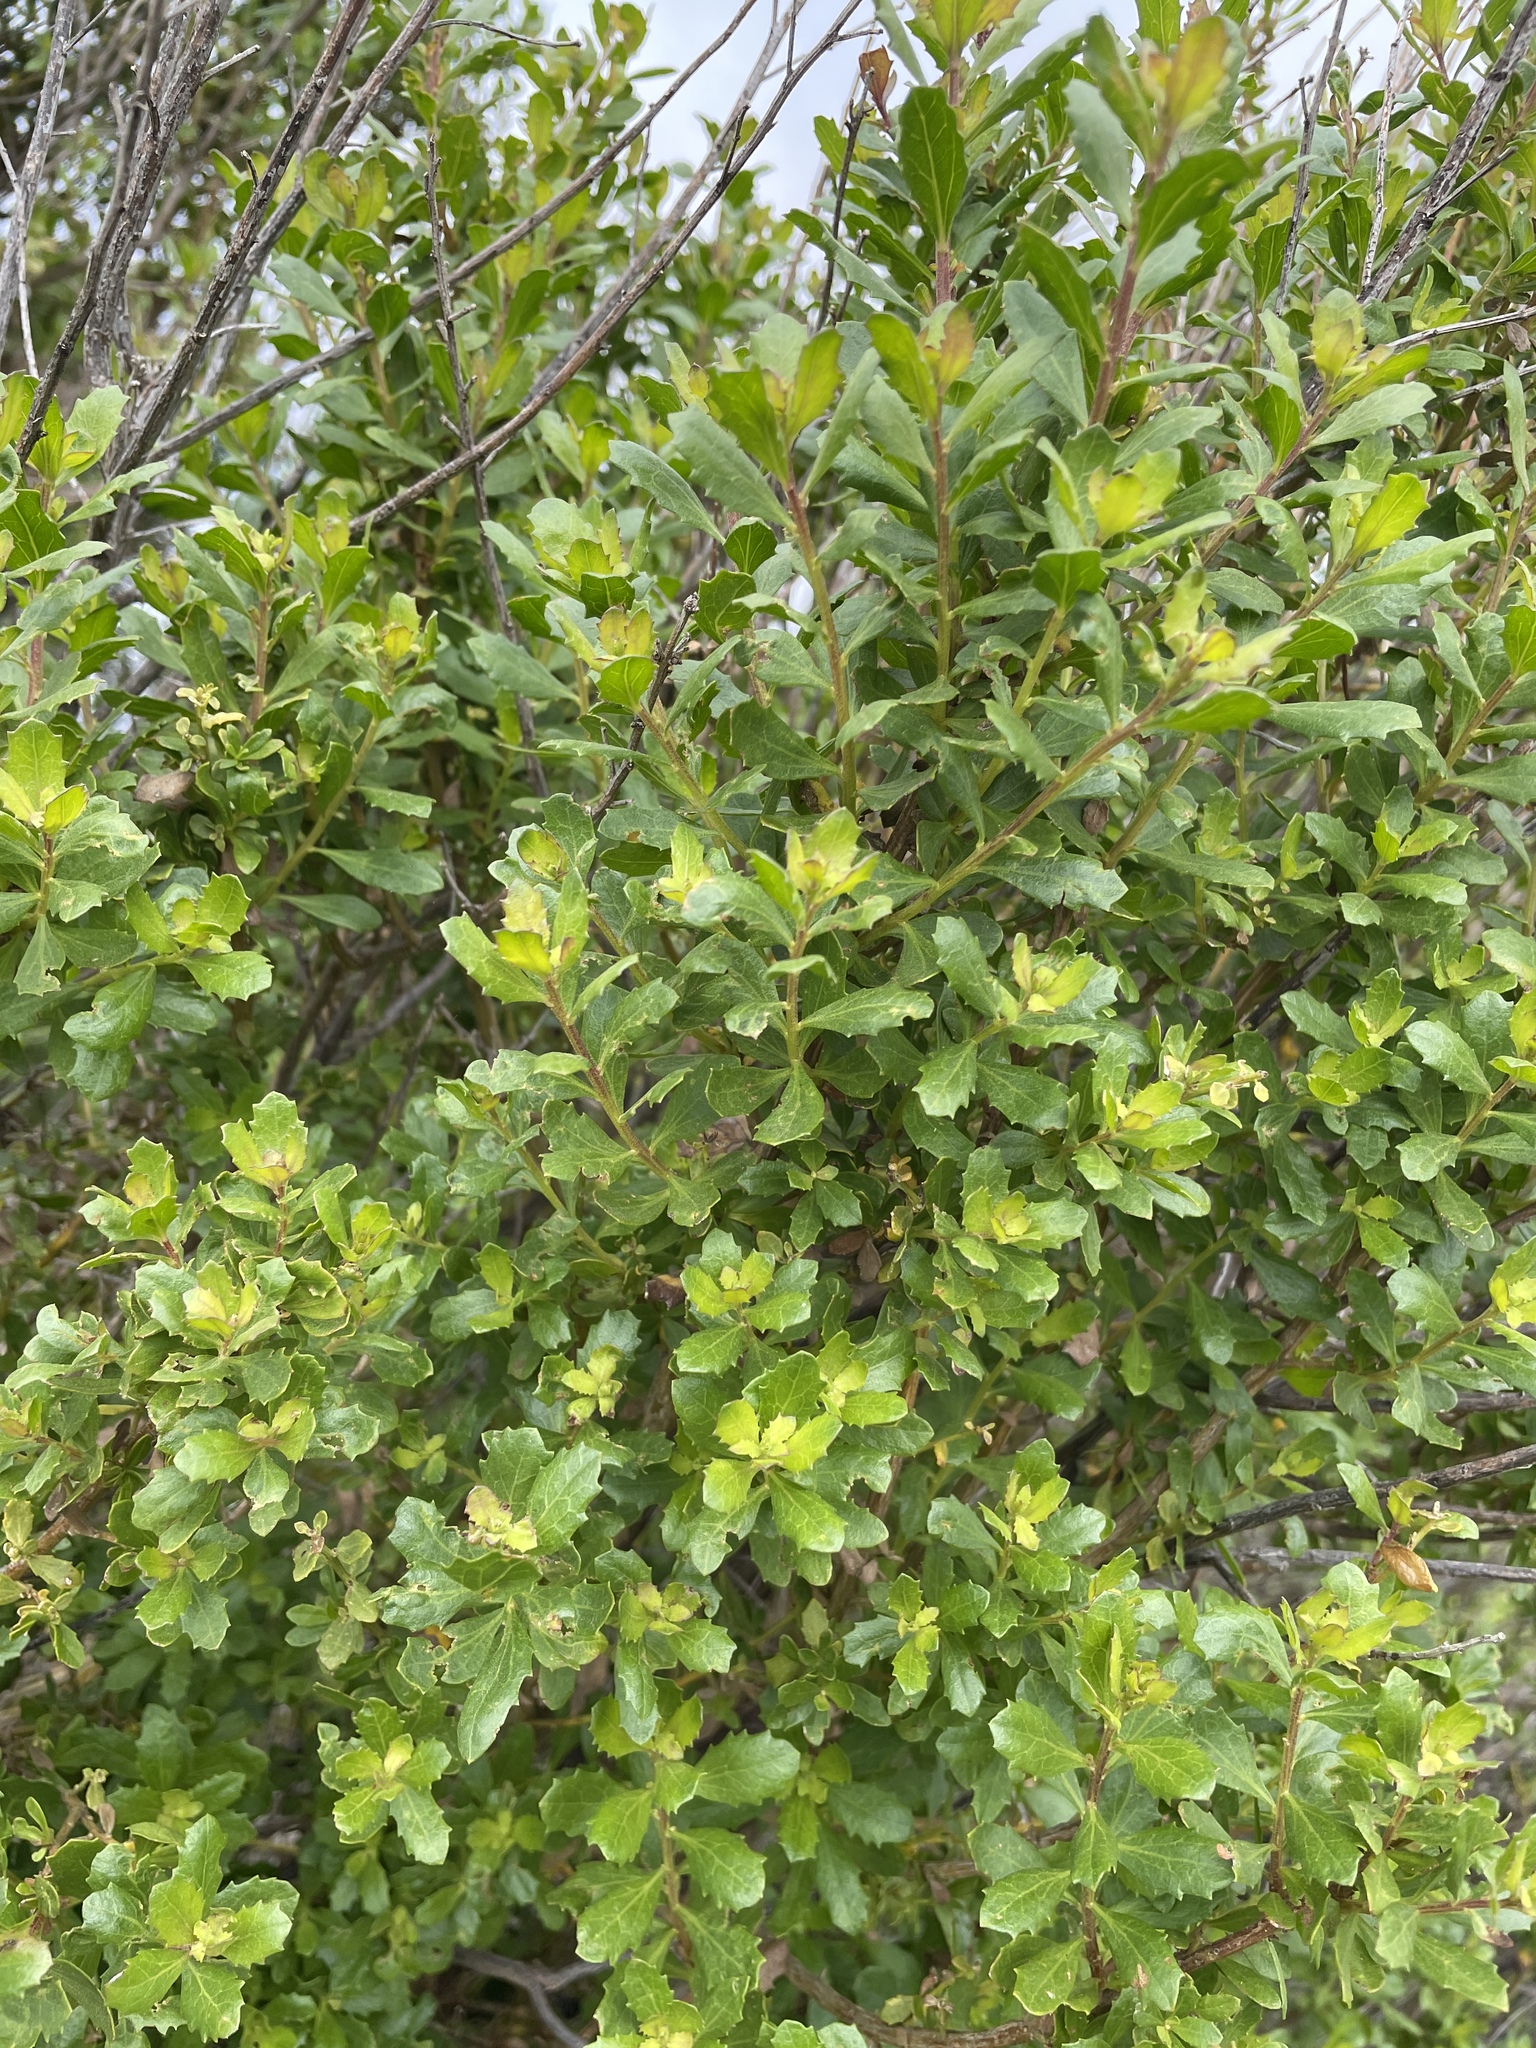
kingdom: Plantae
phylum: Tracheophyta
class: Magnoliopsida
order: Asterales
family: Asteraceae
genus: Baccharis
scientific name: Baccharis pilularis
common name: Coyotebrush
